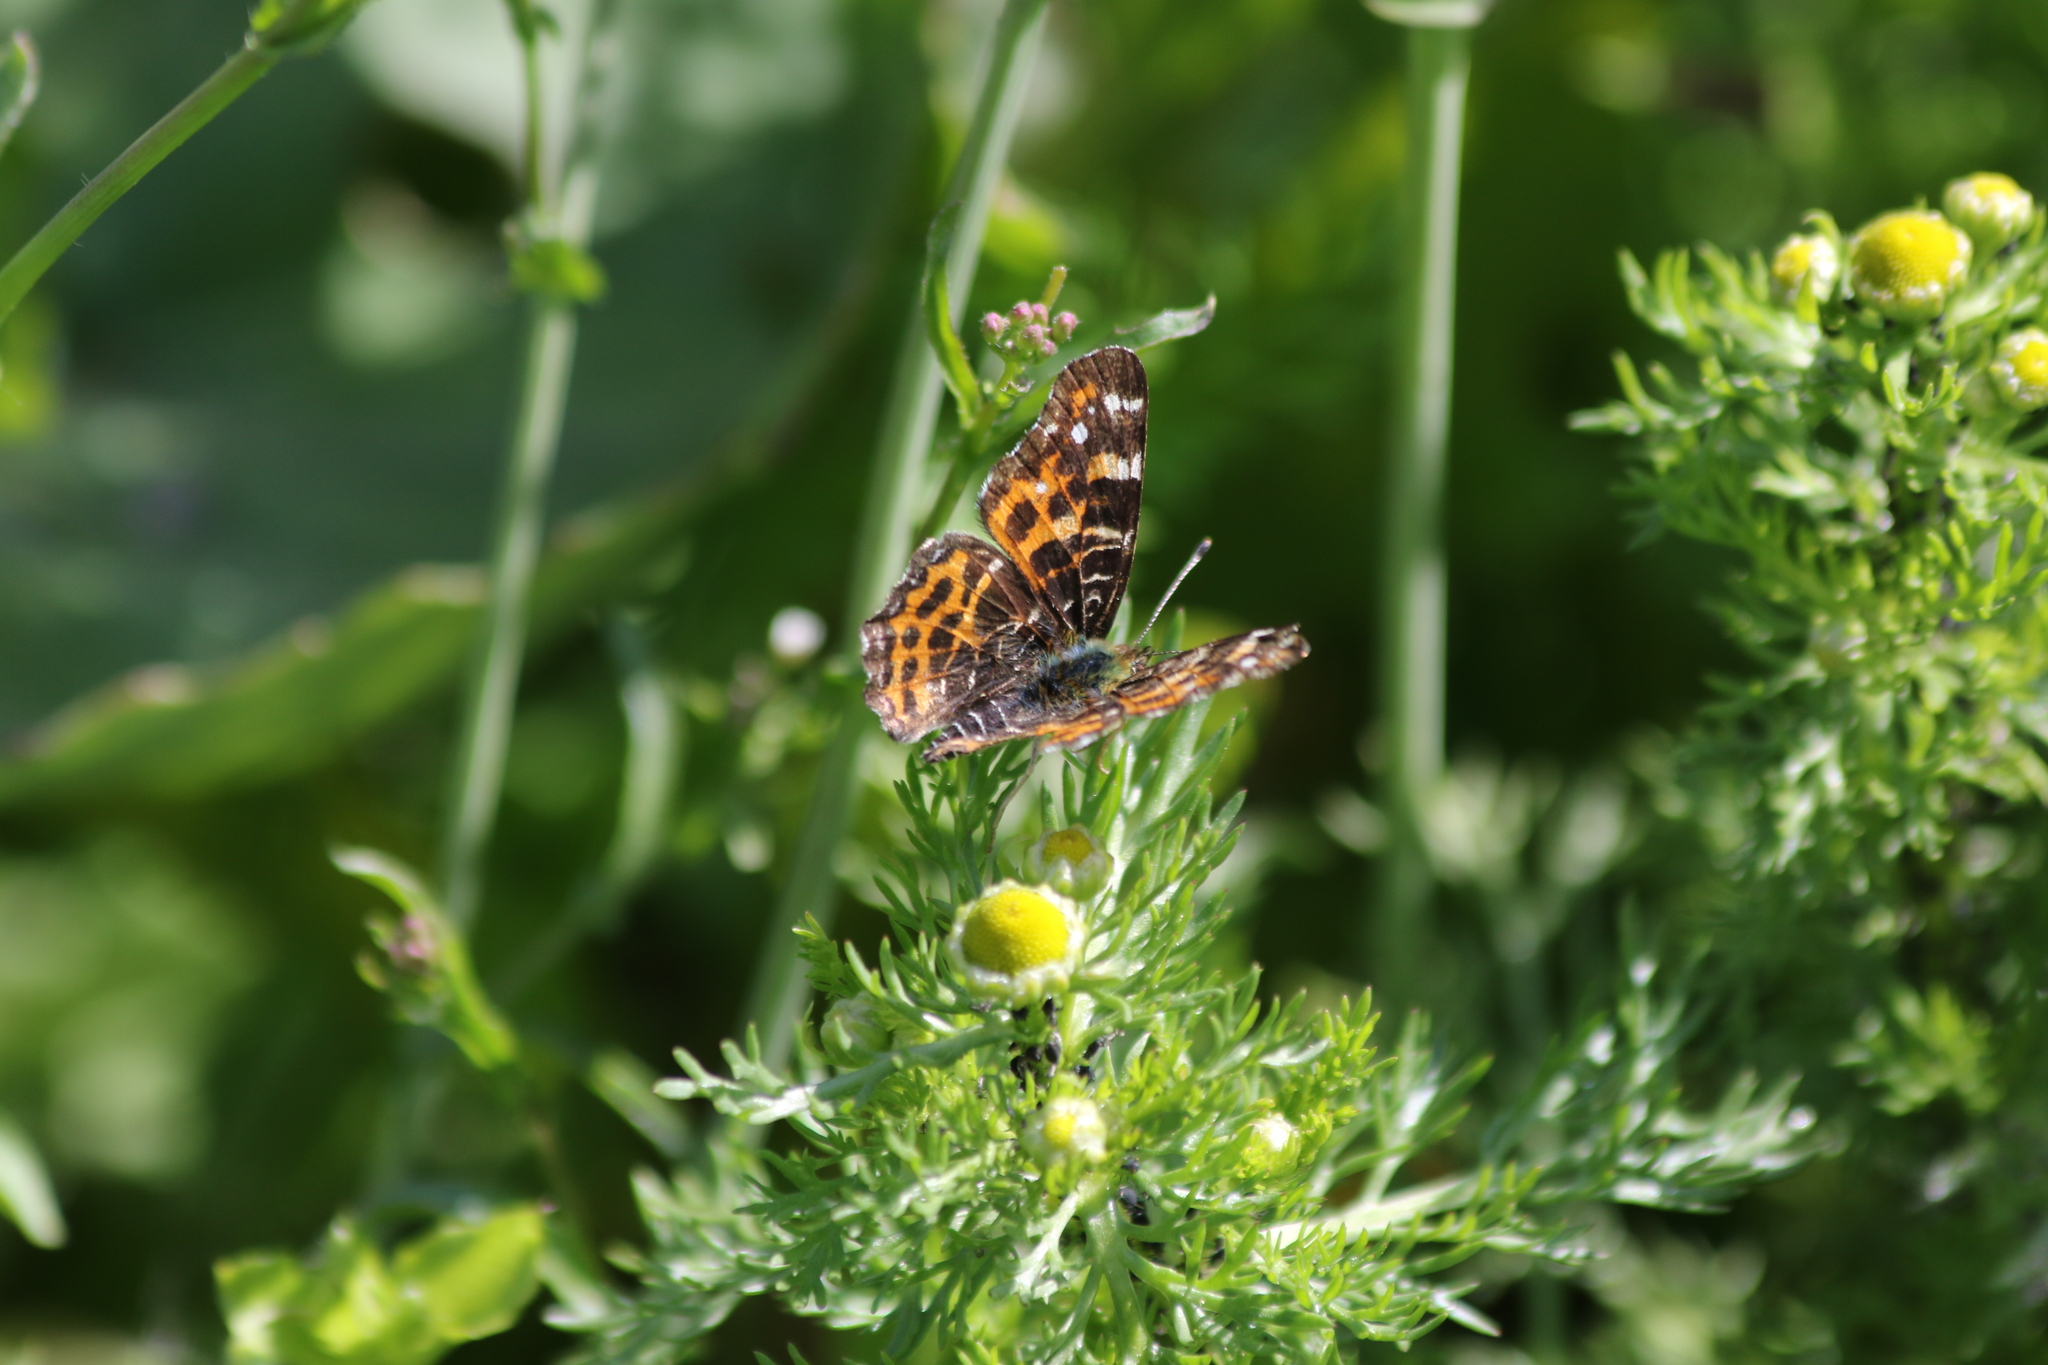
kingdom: Animalia
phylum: Arthropoda
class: Insecta
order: Lepidoptera
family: Nymphalidae
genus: Araschnia
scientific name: Araschnia levana
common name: Map butterfly
